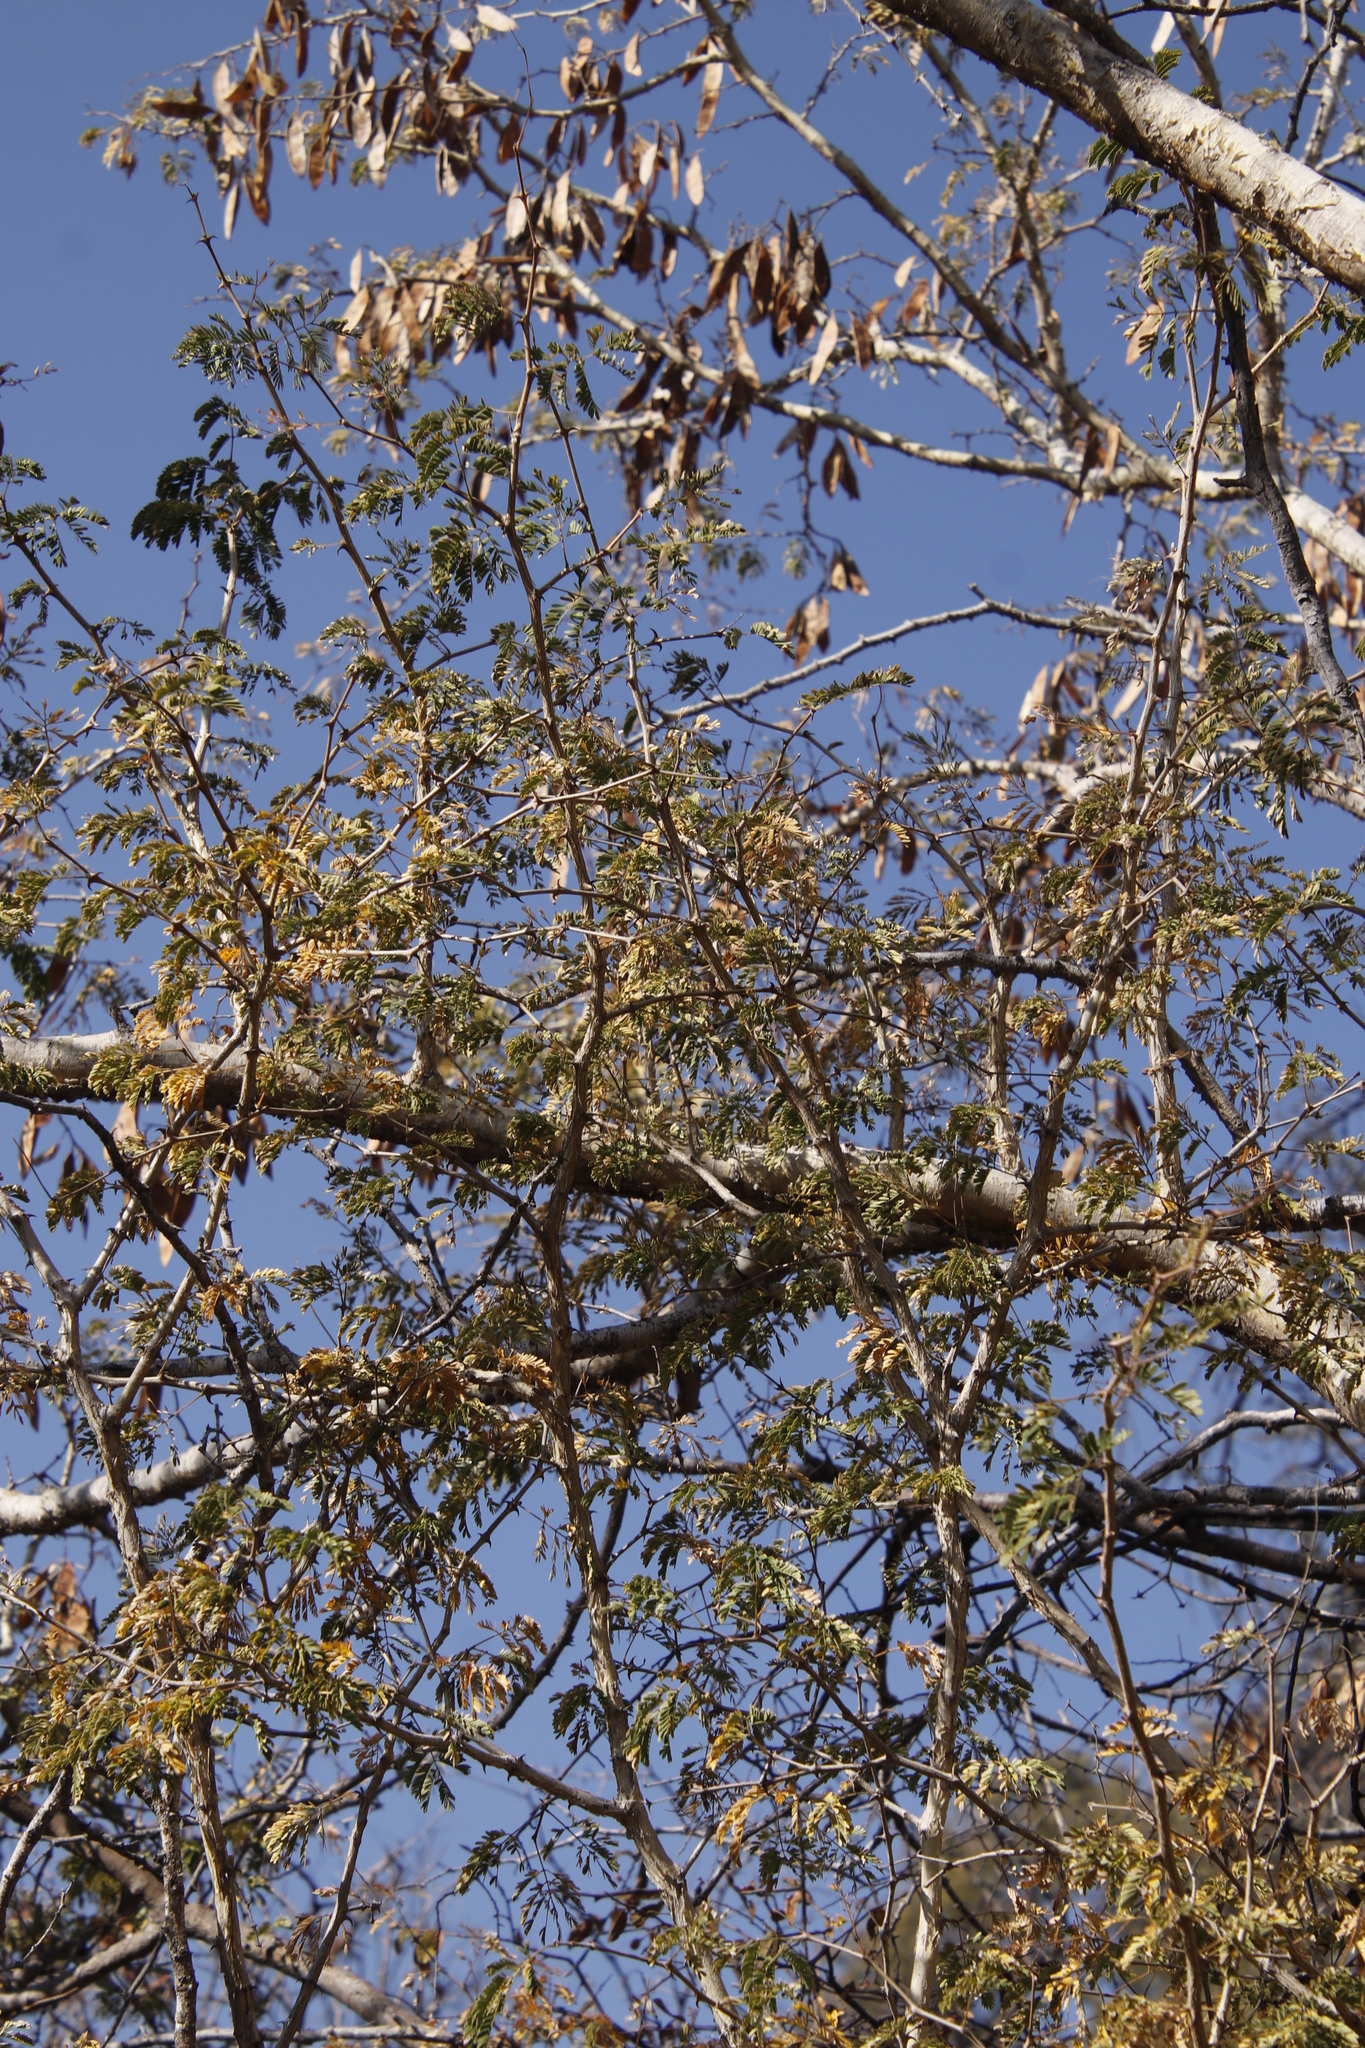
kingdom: Plantae
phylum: Tracheophyta
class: Magnoliopsida
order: Fabales
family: Fabaceae
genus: Senegalia
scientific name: Senegalia erubescens
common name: Bluethorn
